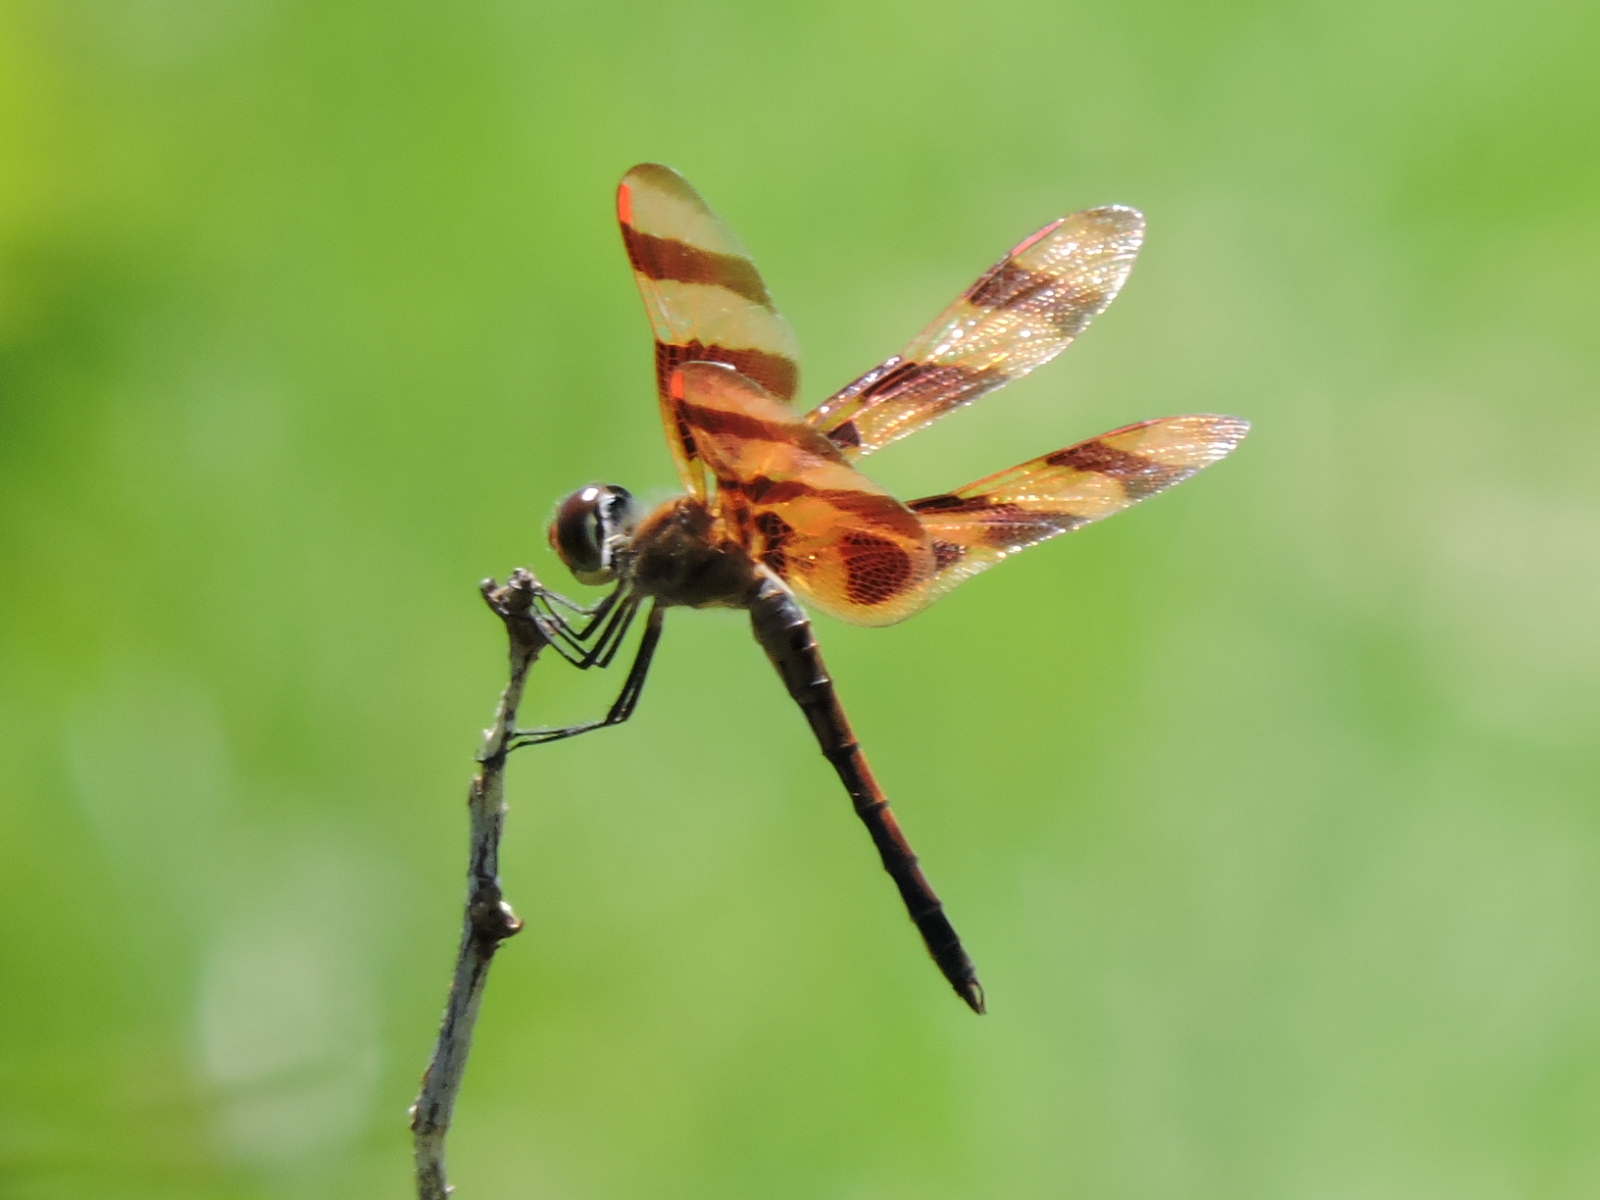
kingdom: Animalia
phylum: Arthropoda
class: Insecta
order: Odonata
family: Libellulidae
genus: Celithemis
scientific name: Celithemis eponina
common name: Halloween pennant
